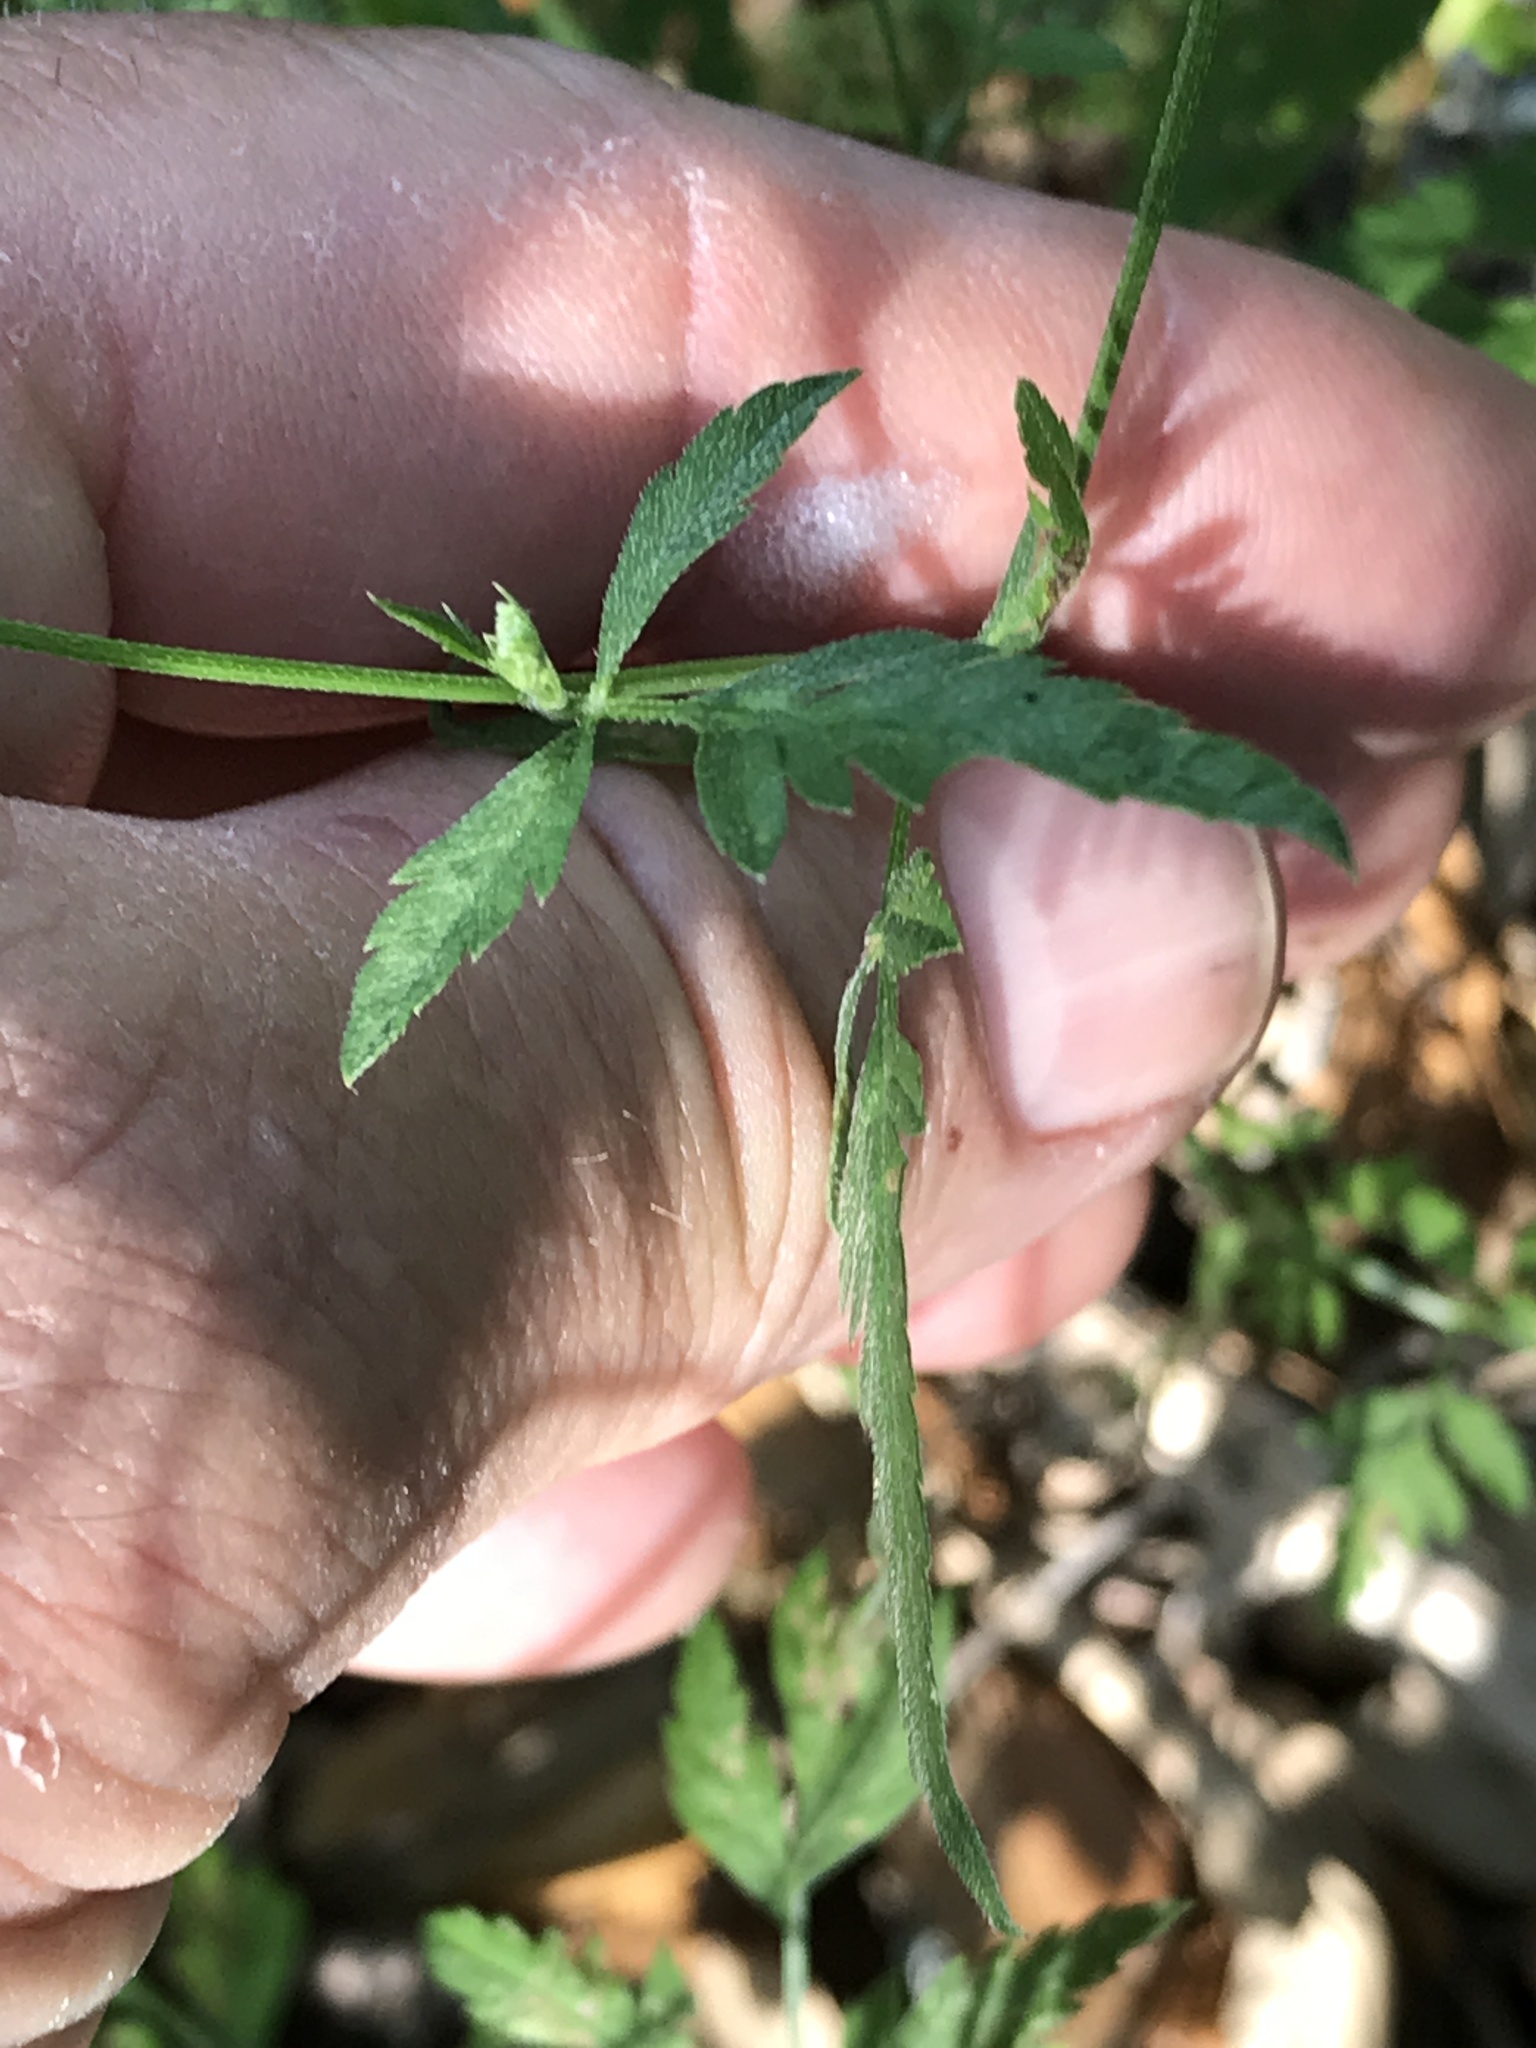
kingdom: Plantae
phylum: Tracheophyta
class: Magnoliopsida
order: Apiales
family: Apiaceae
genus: Torilis
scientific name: Torilis arvensis
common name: Spreading hedge-parsley
